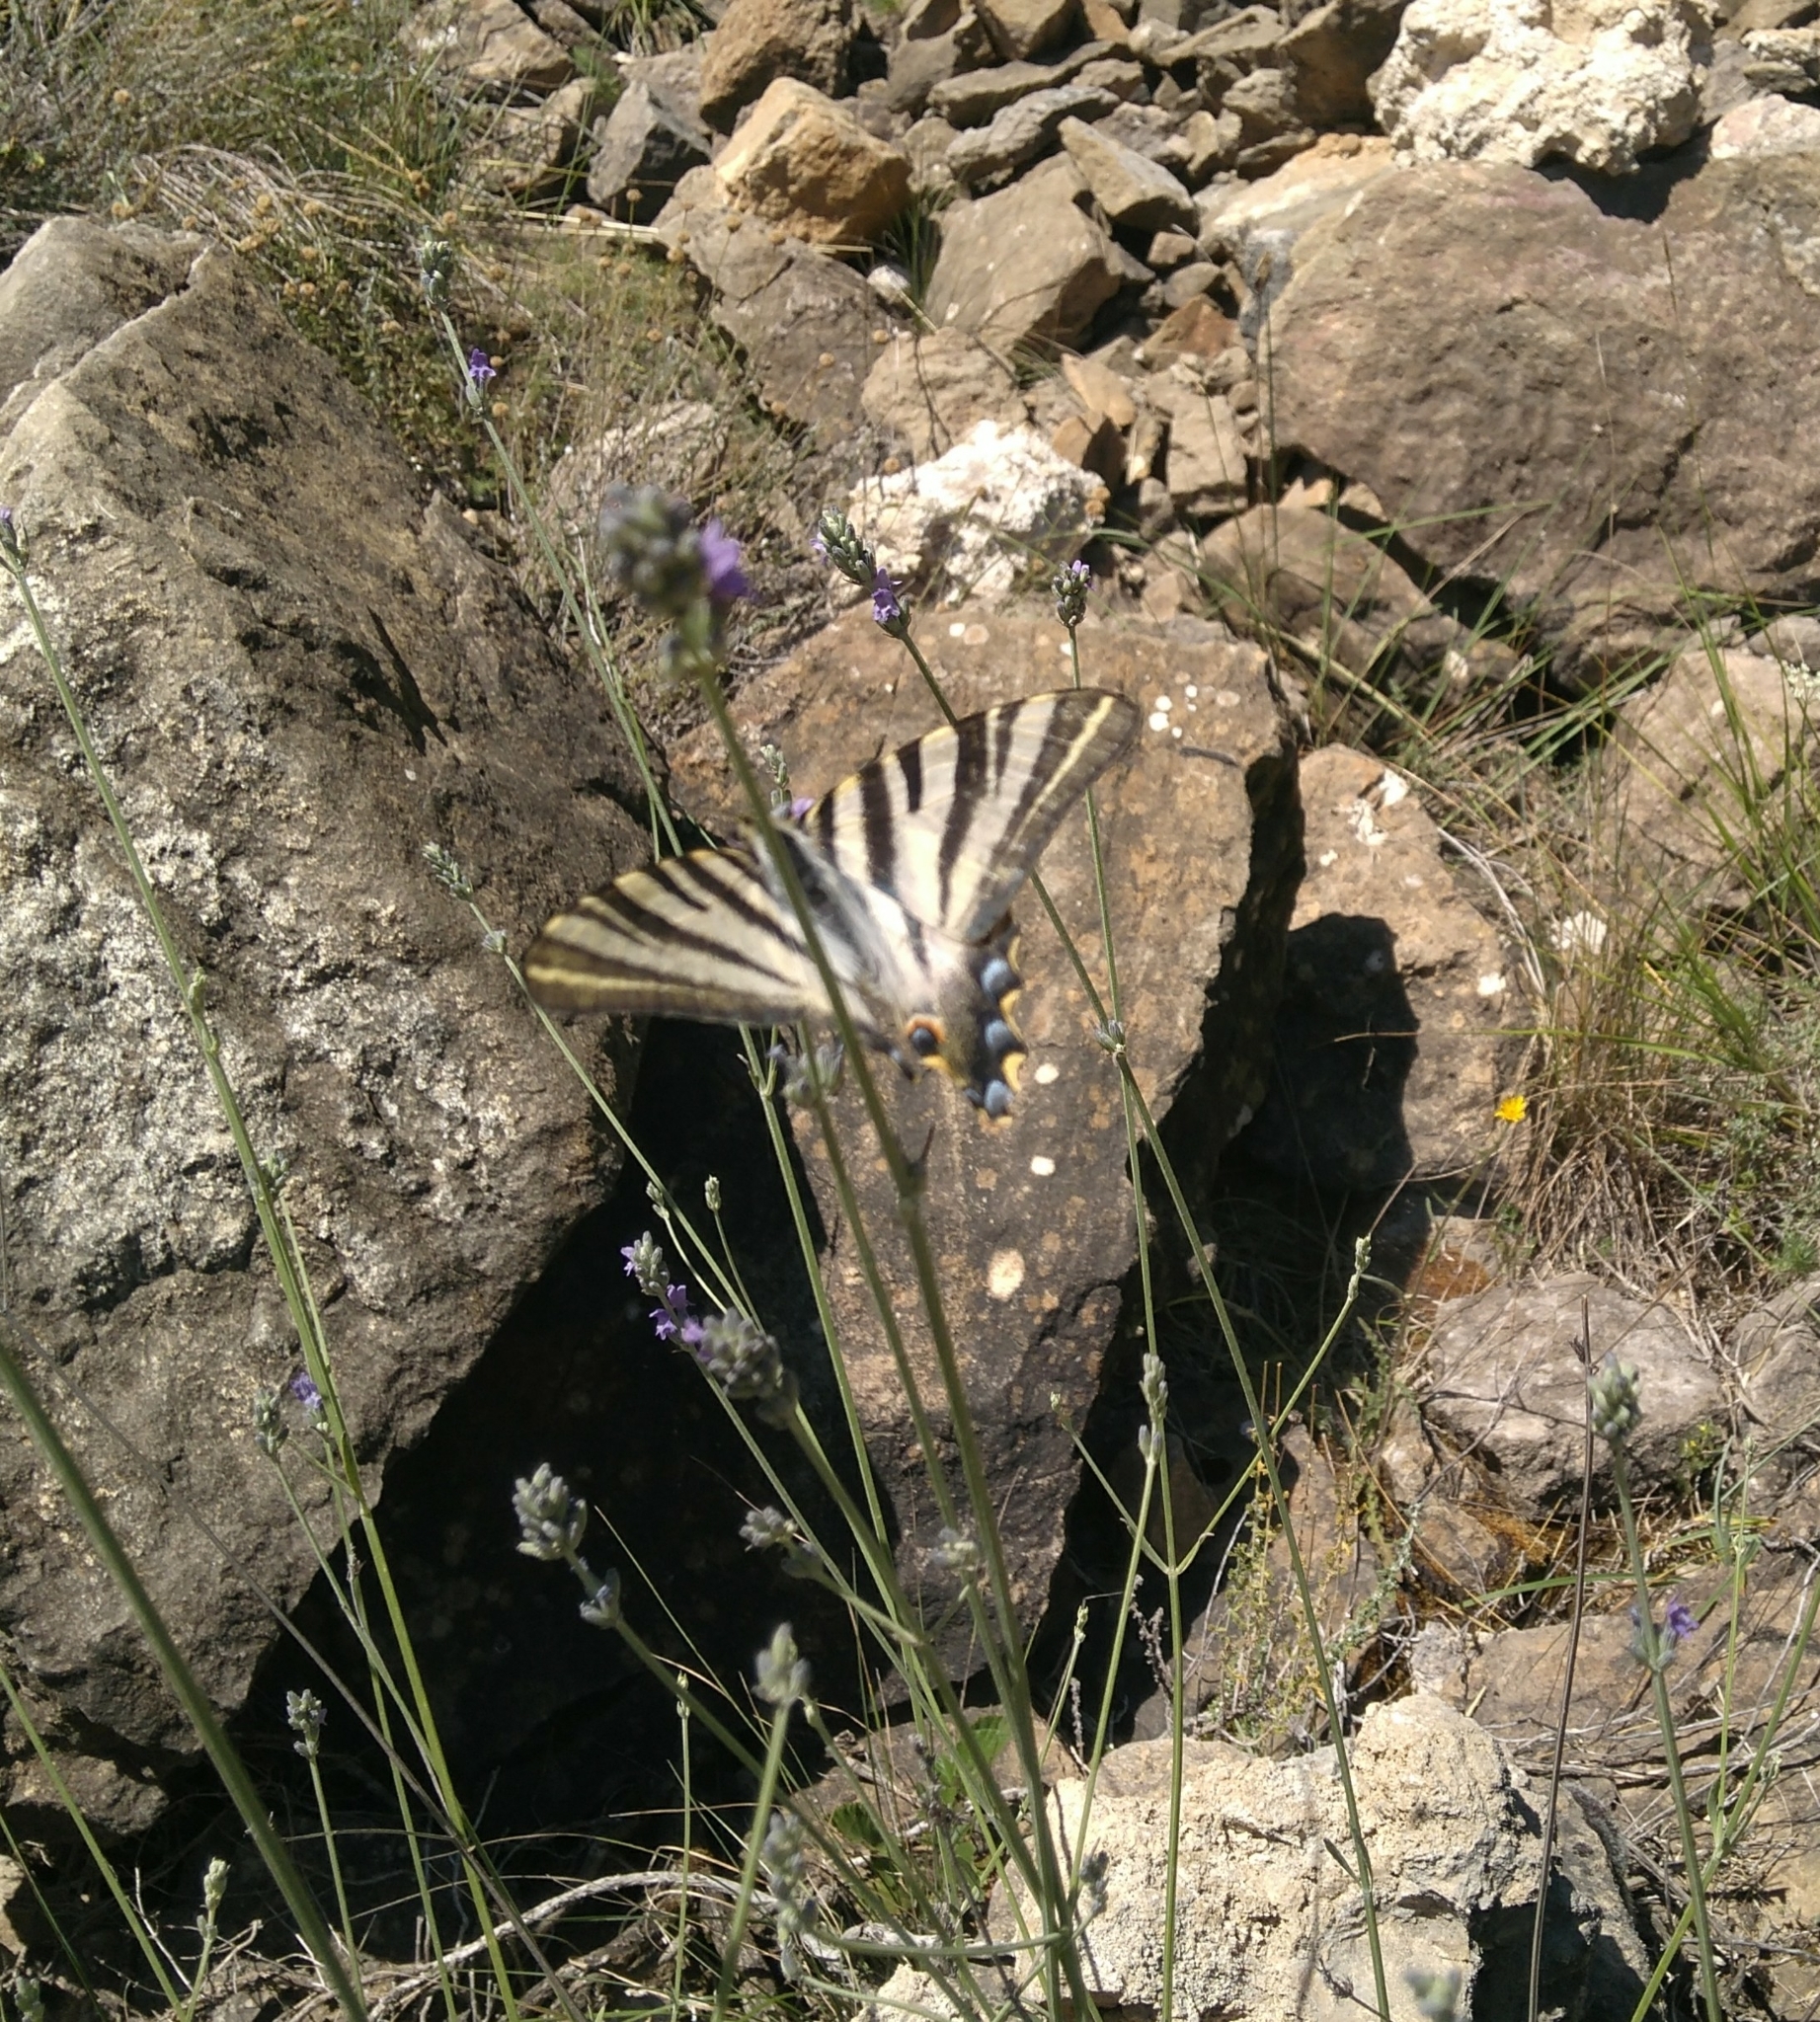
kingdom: Animalia
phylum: Arthropoda
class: Insecta
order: Lepidoptera
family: Papilionidae
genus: Iphiclides
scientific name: Iphiclides feisthamelii
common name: Iberian scarce swallowtail
